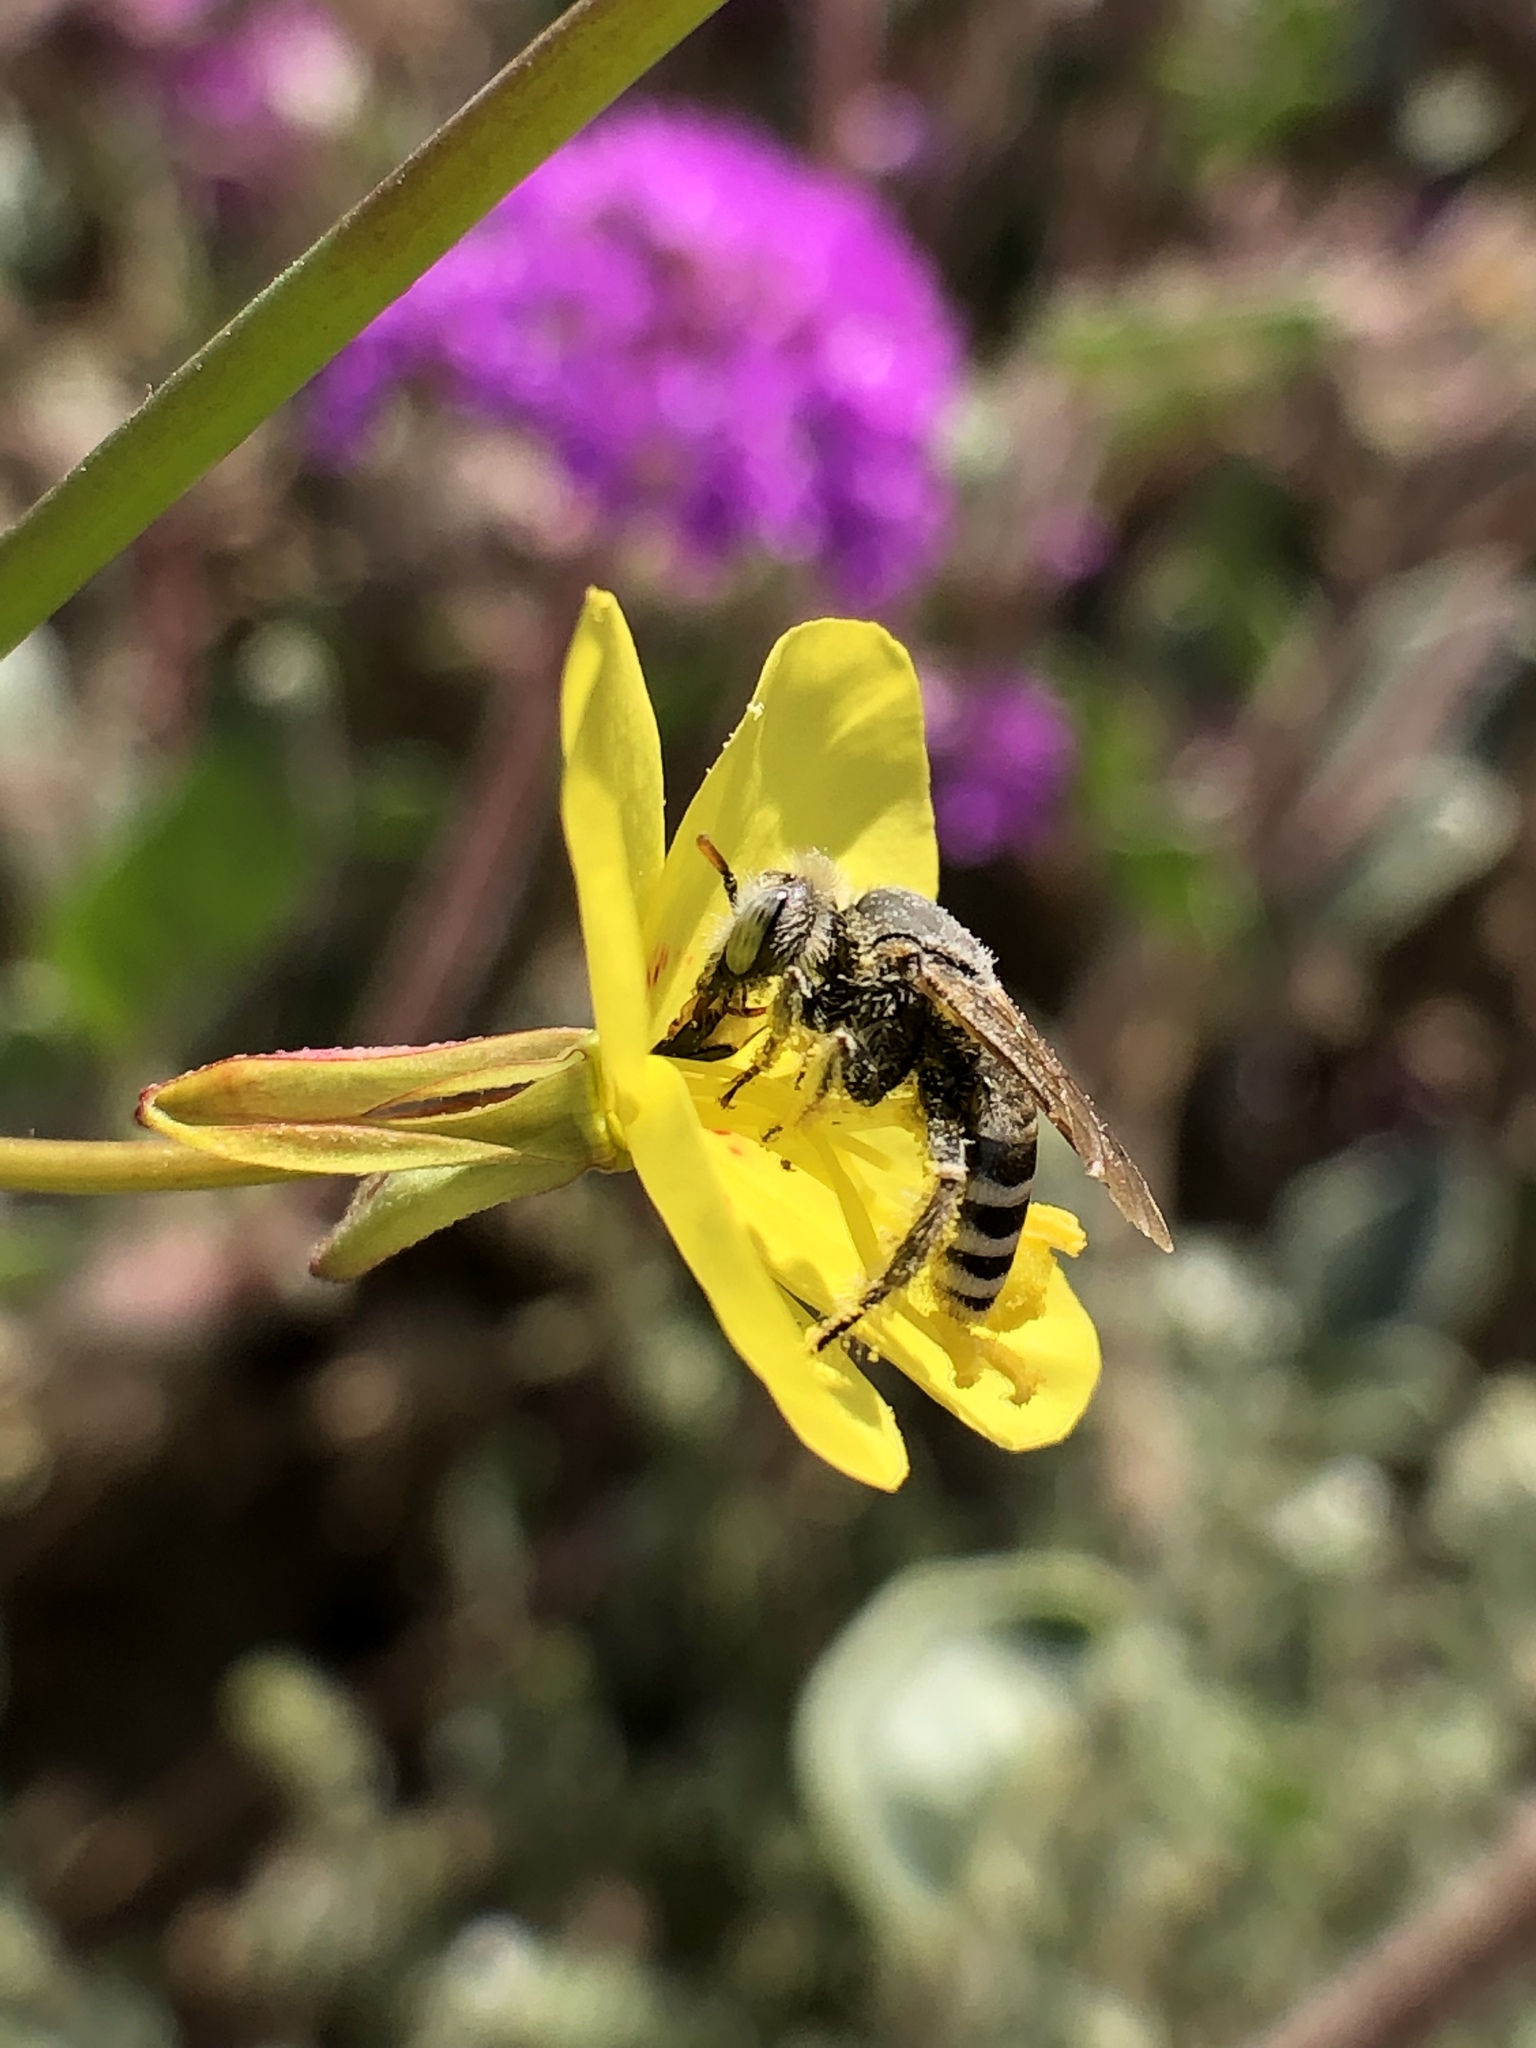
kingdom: Animalia
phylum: Arthropoda
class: Insecta
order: Hymenoptera
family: Melittidae
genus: Hesperapis
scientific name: Hesperapis
